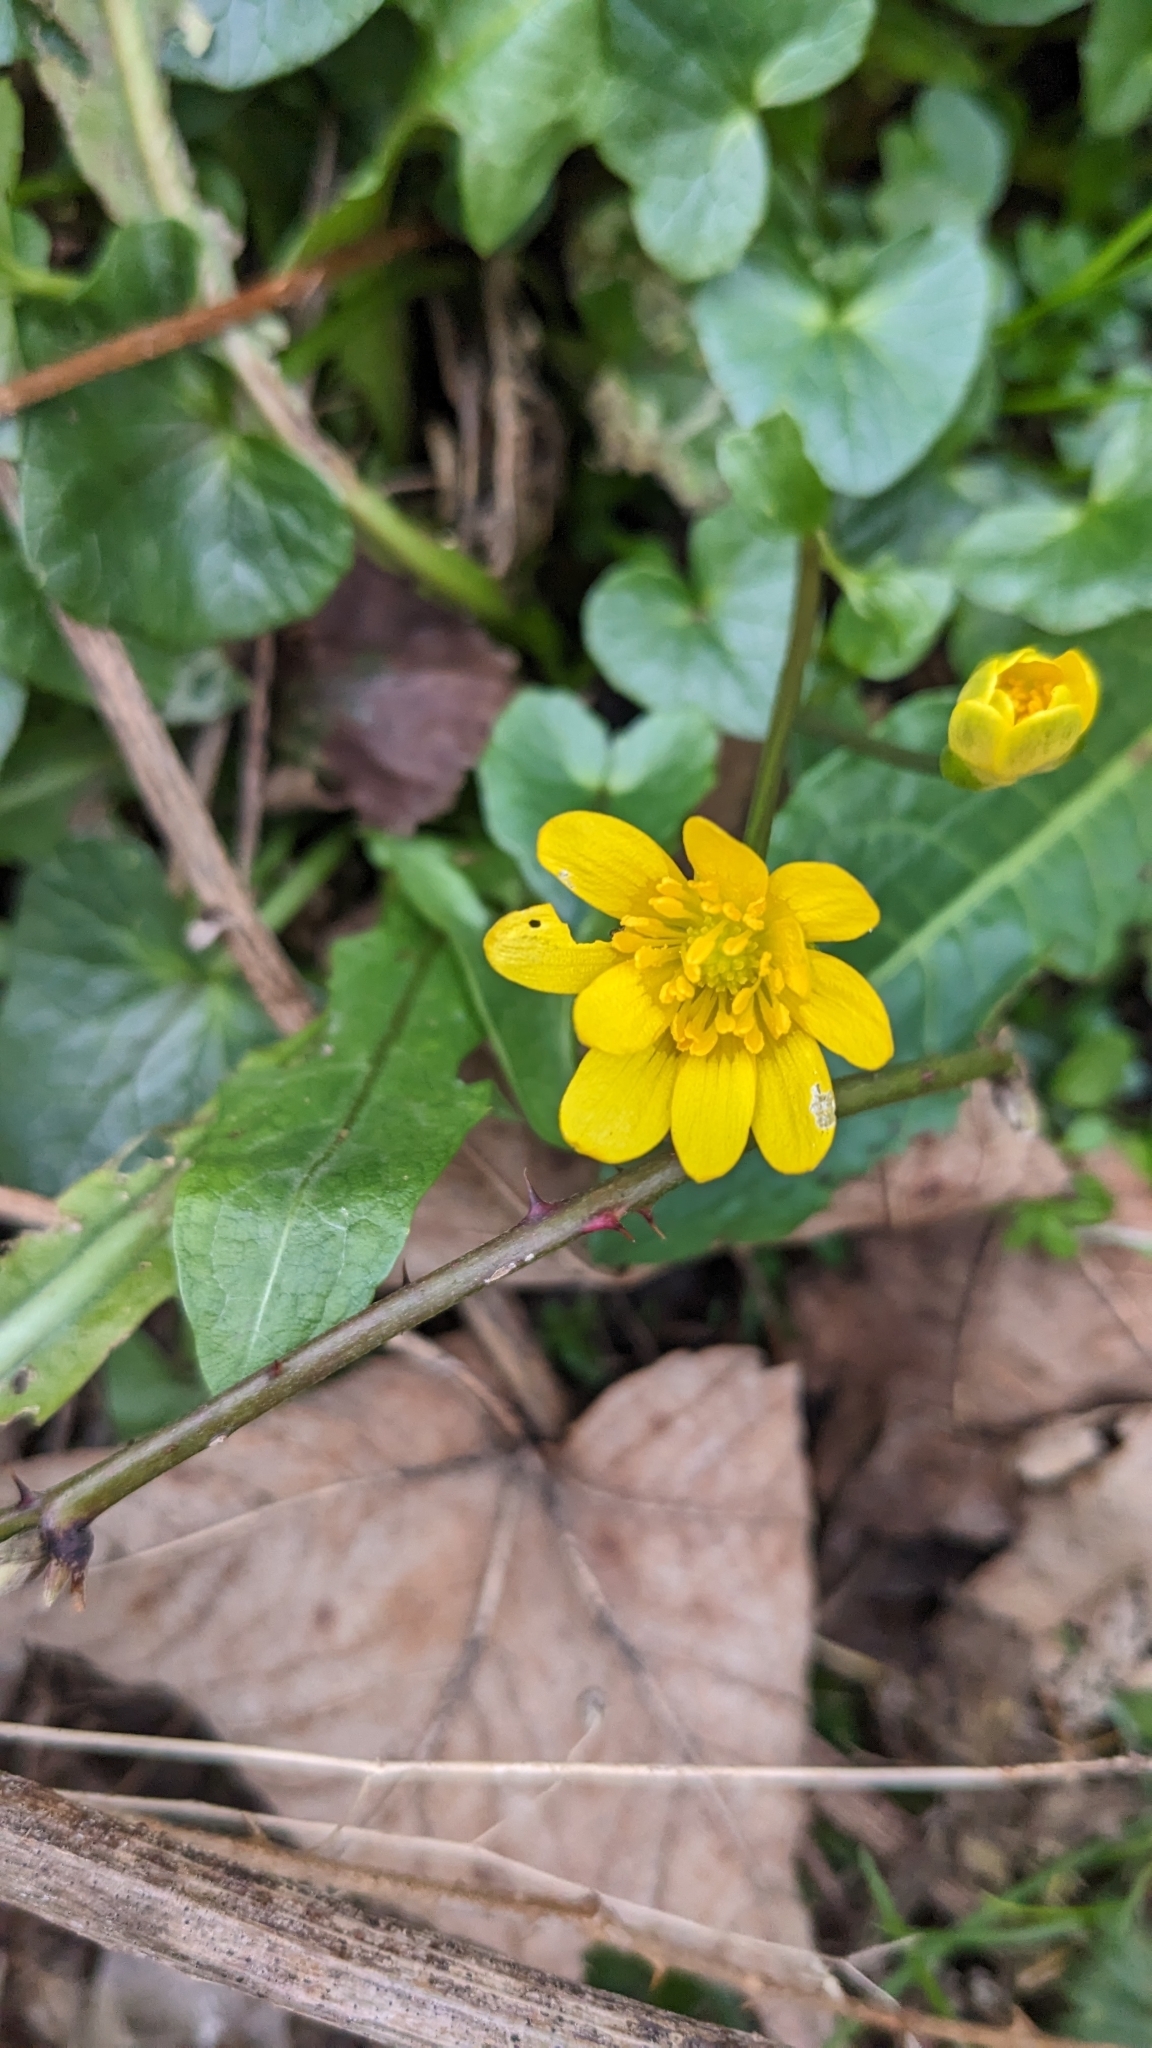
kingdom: Plantae
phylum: Tracheophyta
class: Magnoliopsida
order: Ranunculales
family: Ranunculaceae
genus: Ficaria
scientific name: Ficaria verna
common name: Lesser celandine
